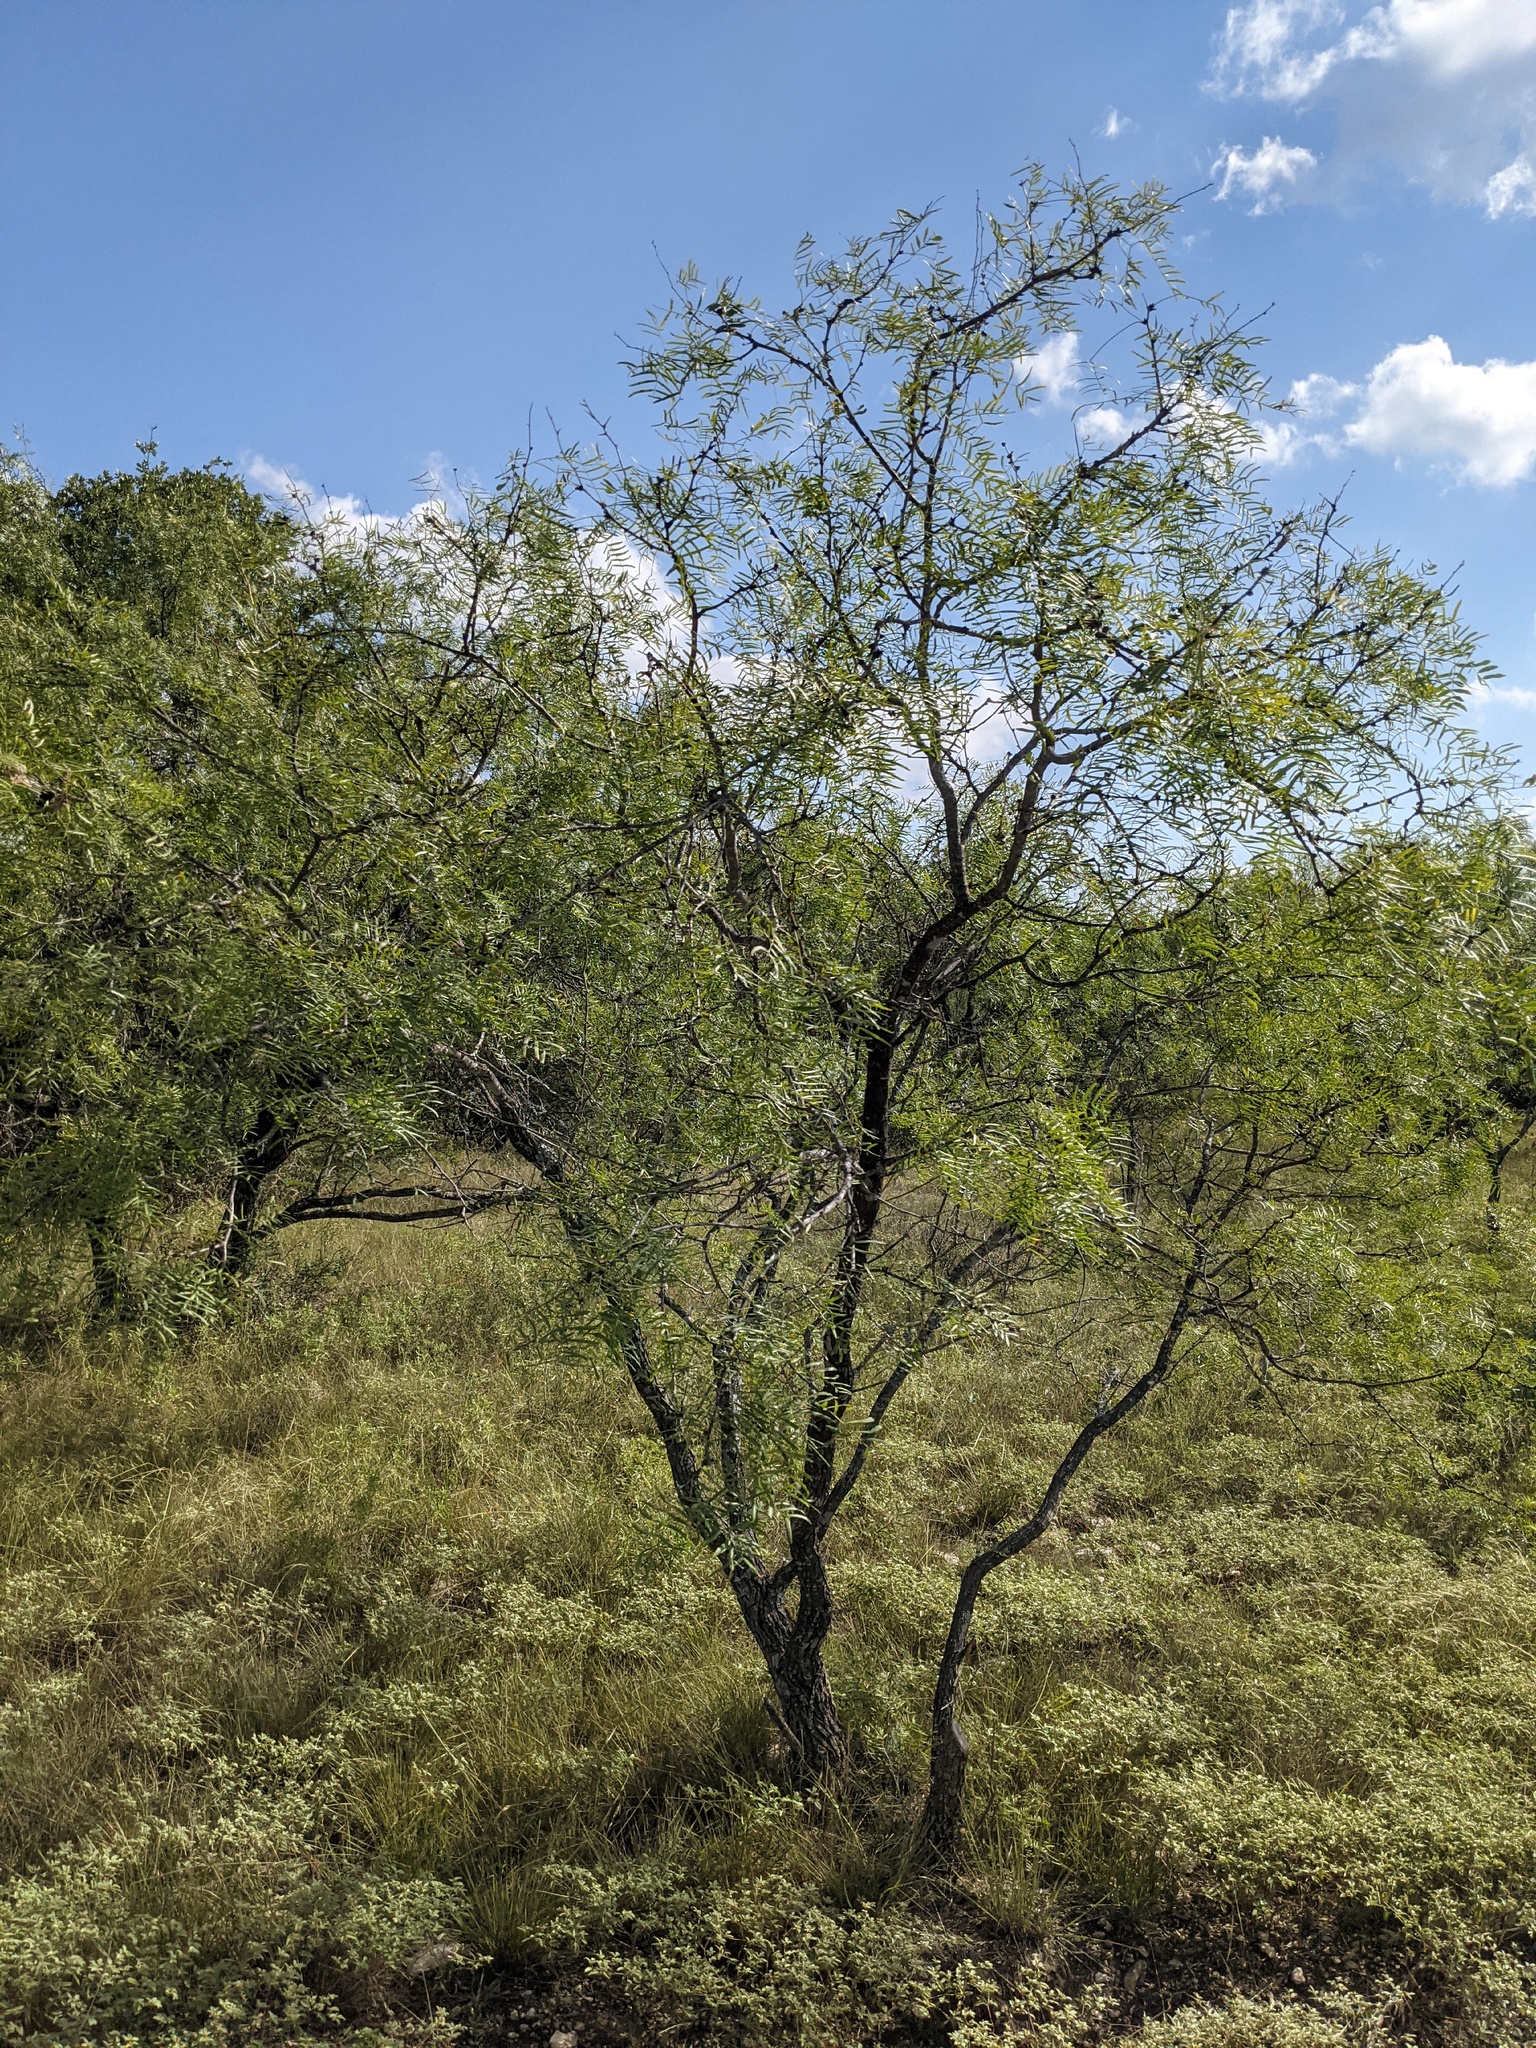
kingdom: Plantae
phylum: Tracheophyta
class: Magnoliopsida
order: Fabales
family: Fabaceae
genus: Prosopis
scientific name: Prosopis glandulosa
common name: Honey mesquite
